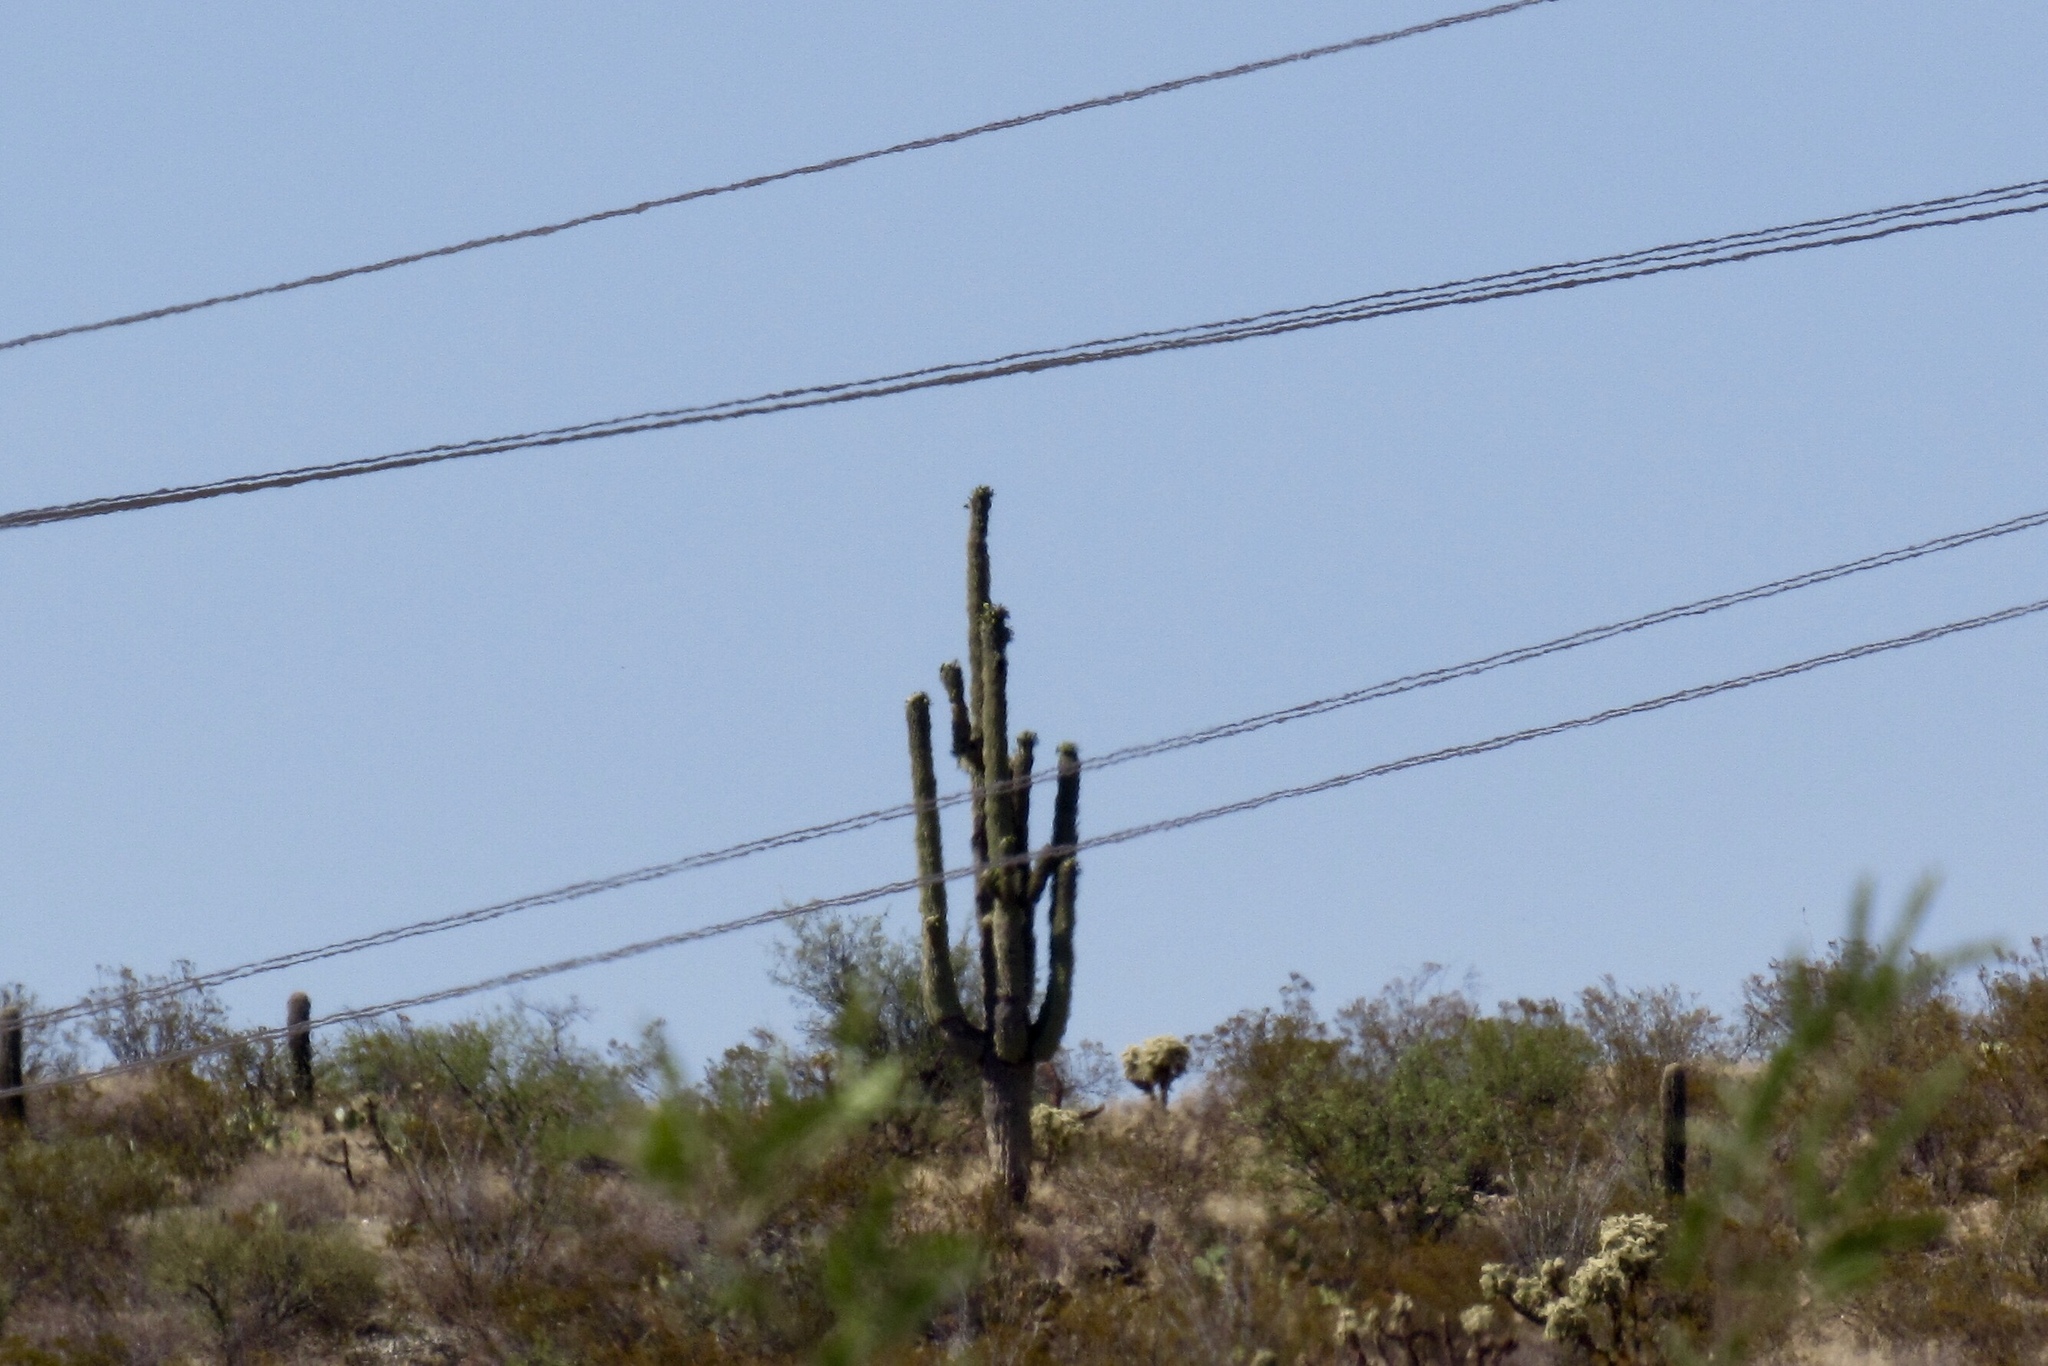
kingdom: Plantae
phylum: Tracheophyta
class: Magnoliopsida
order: Caryophyllales
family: Cactaceae
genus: Carnegiea
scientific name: Carnegiea gigantea
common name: Saguaro
